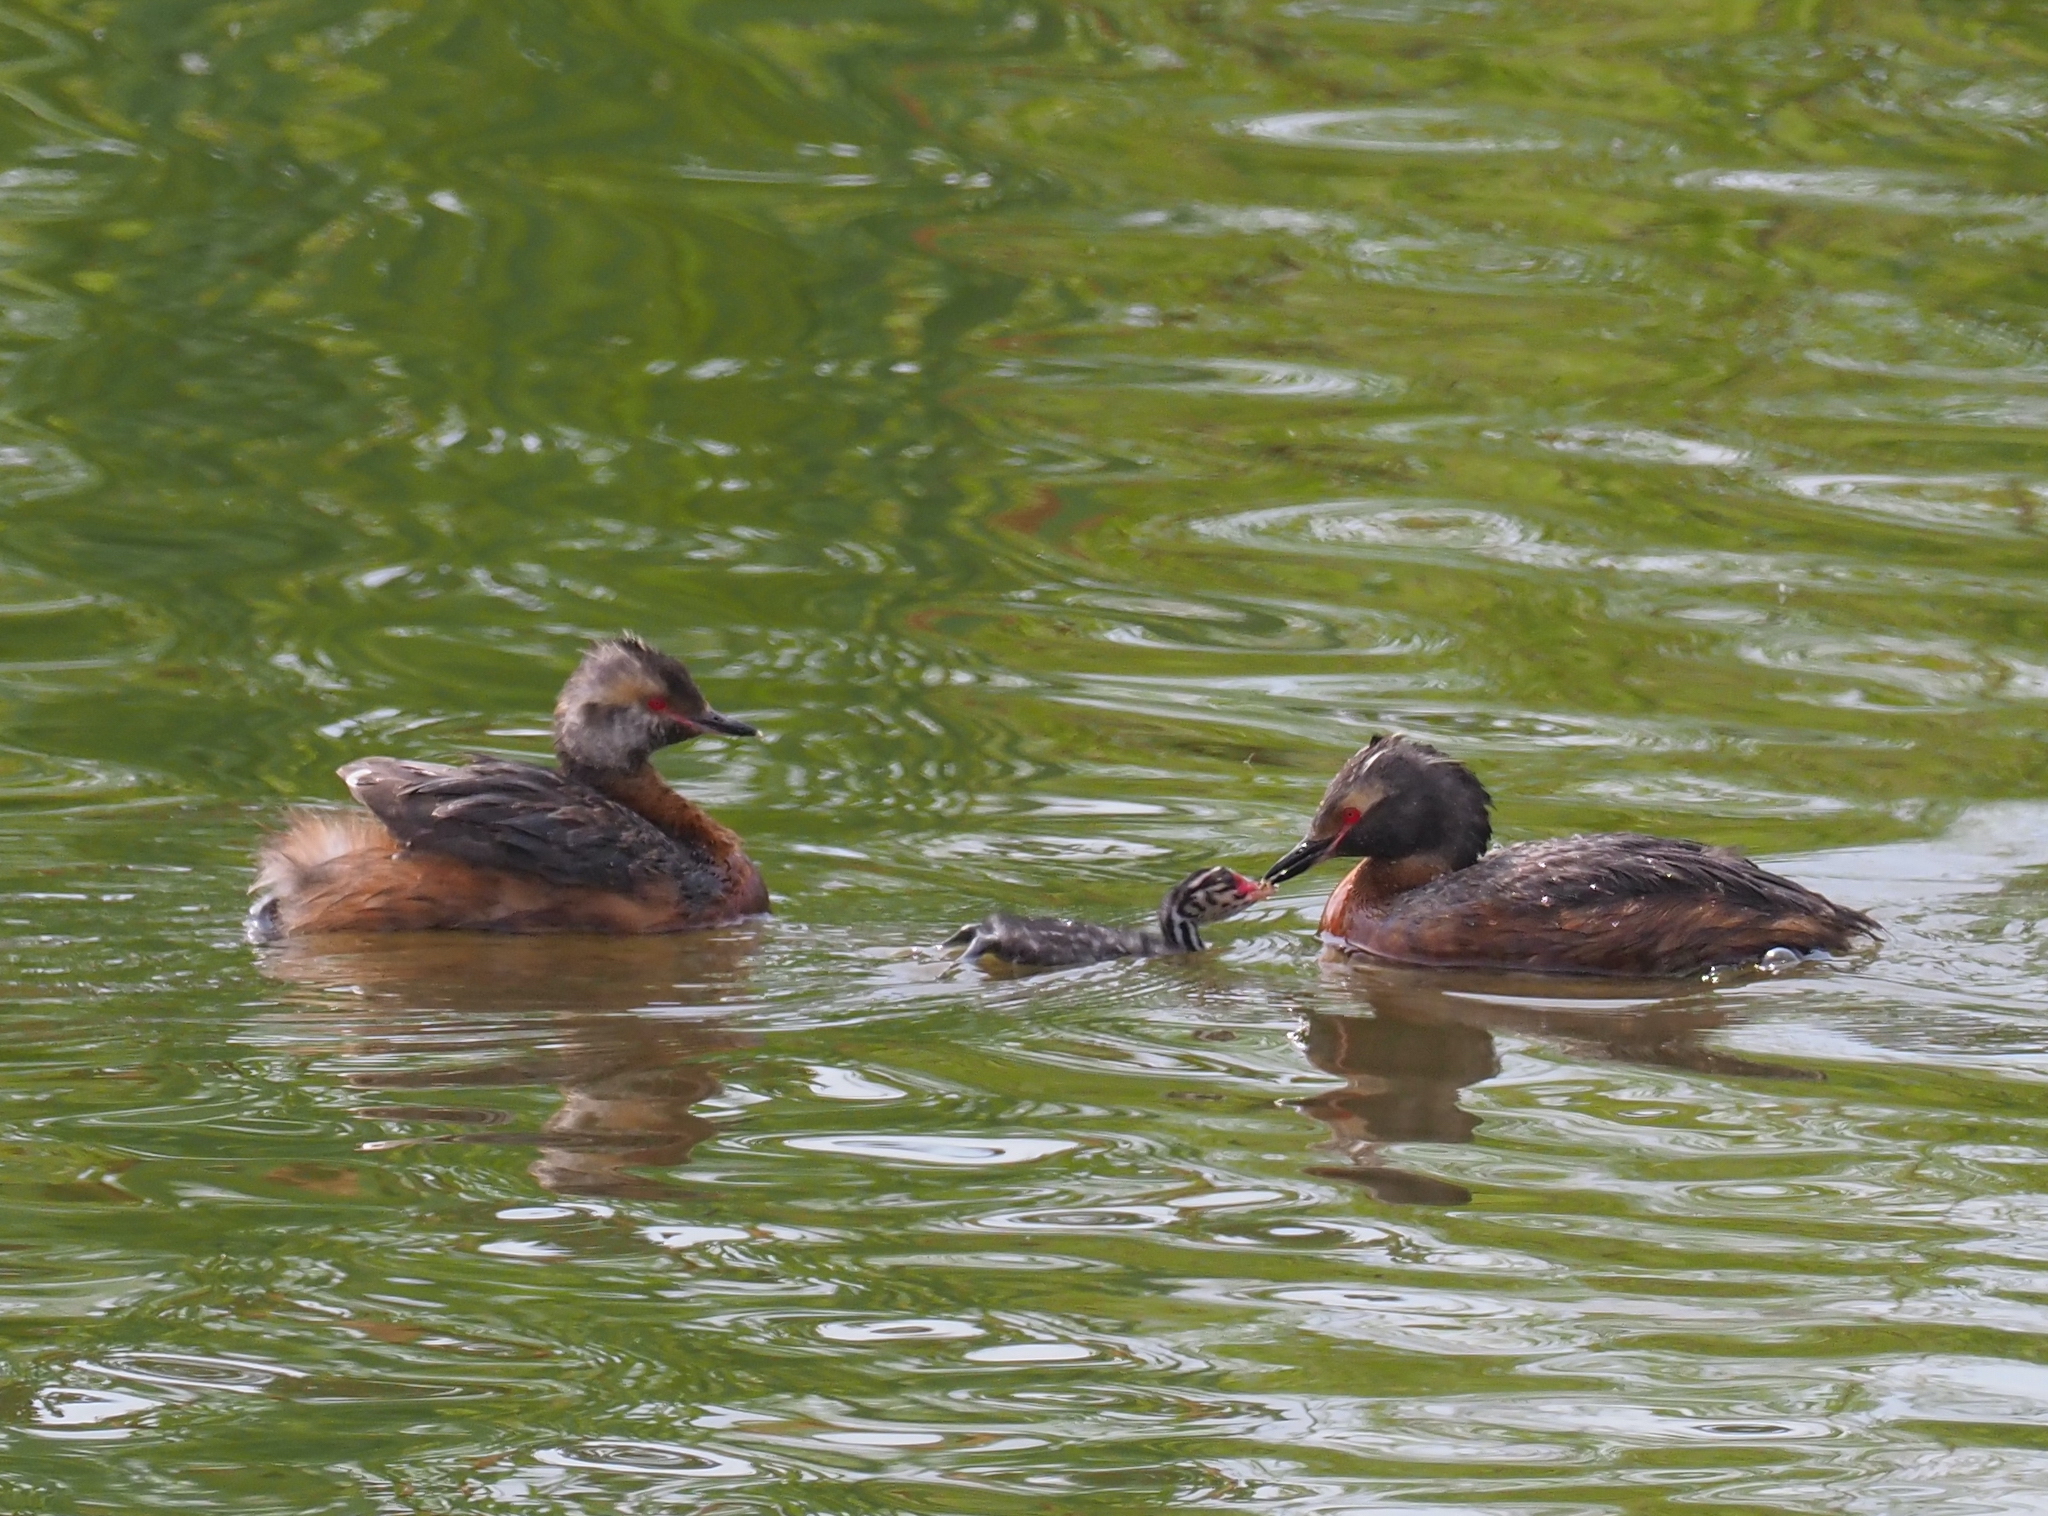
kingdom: Animalia
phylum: Chordata
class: Aves
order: Podicipediformes
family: Podicipedidae
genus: Podiceps
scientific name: Podiceps auritus
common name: Horned grebe
